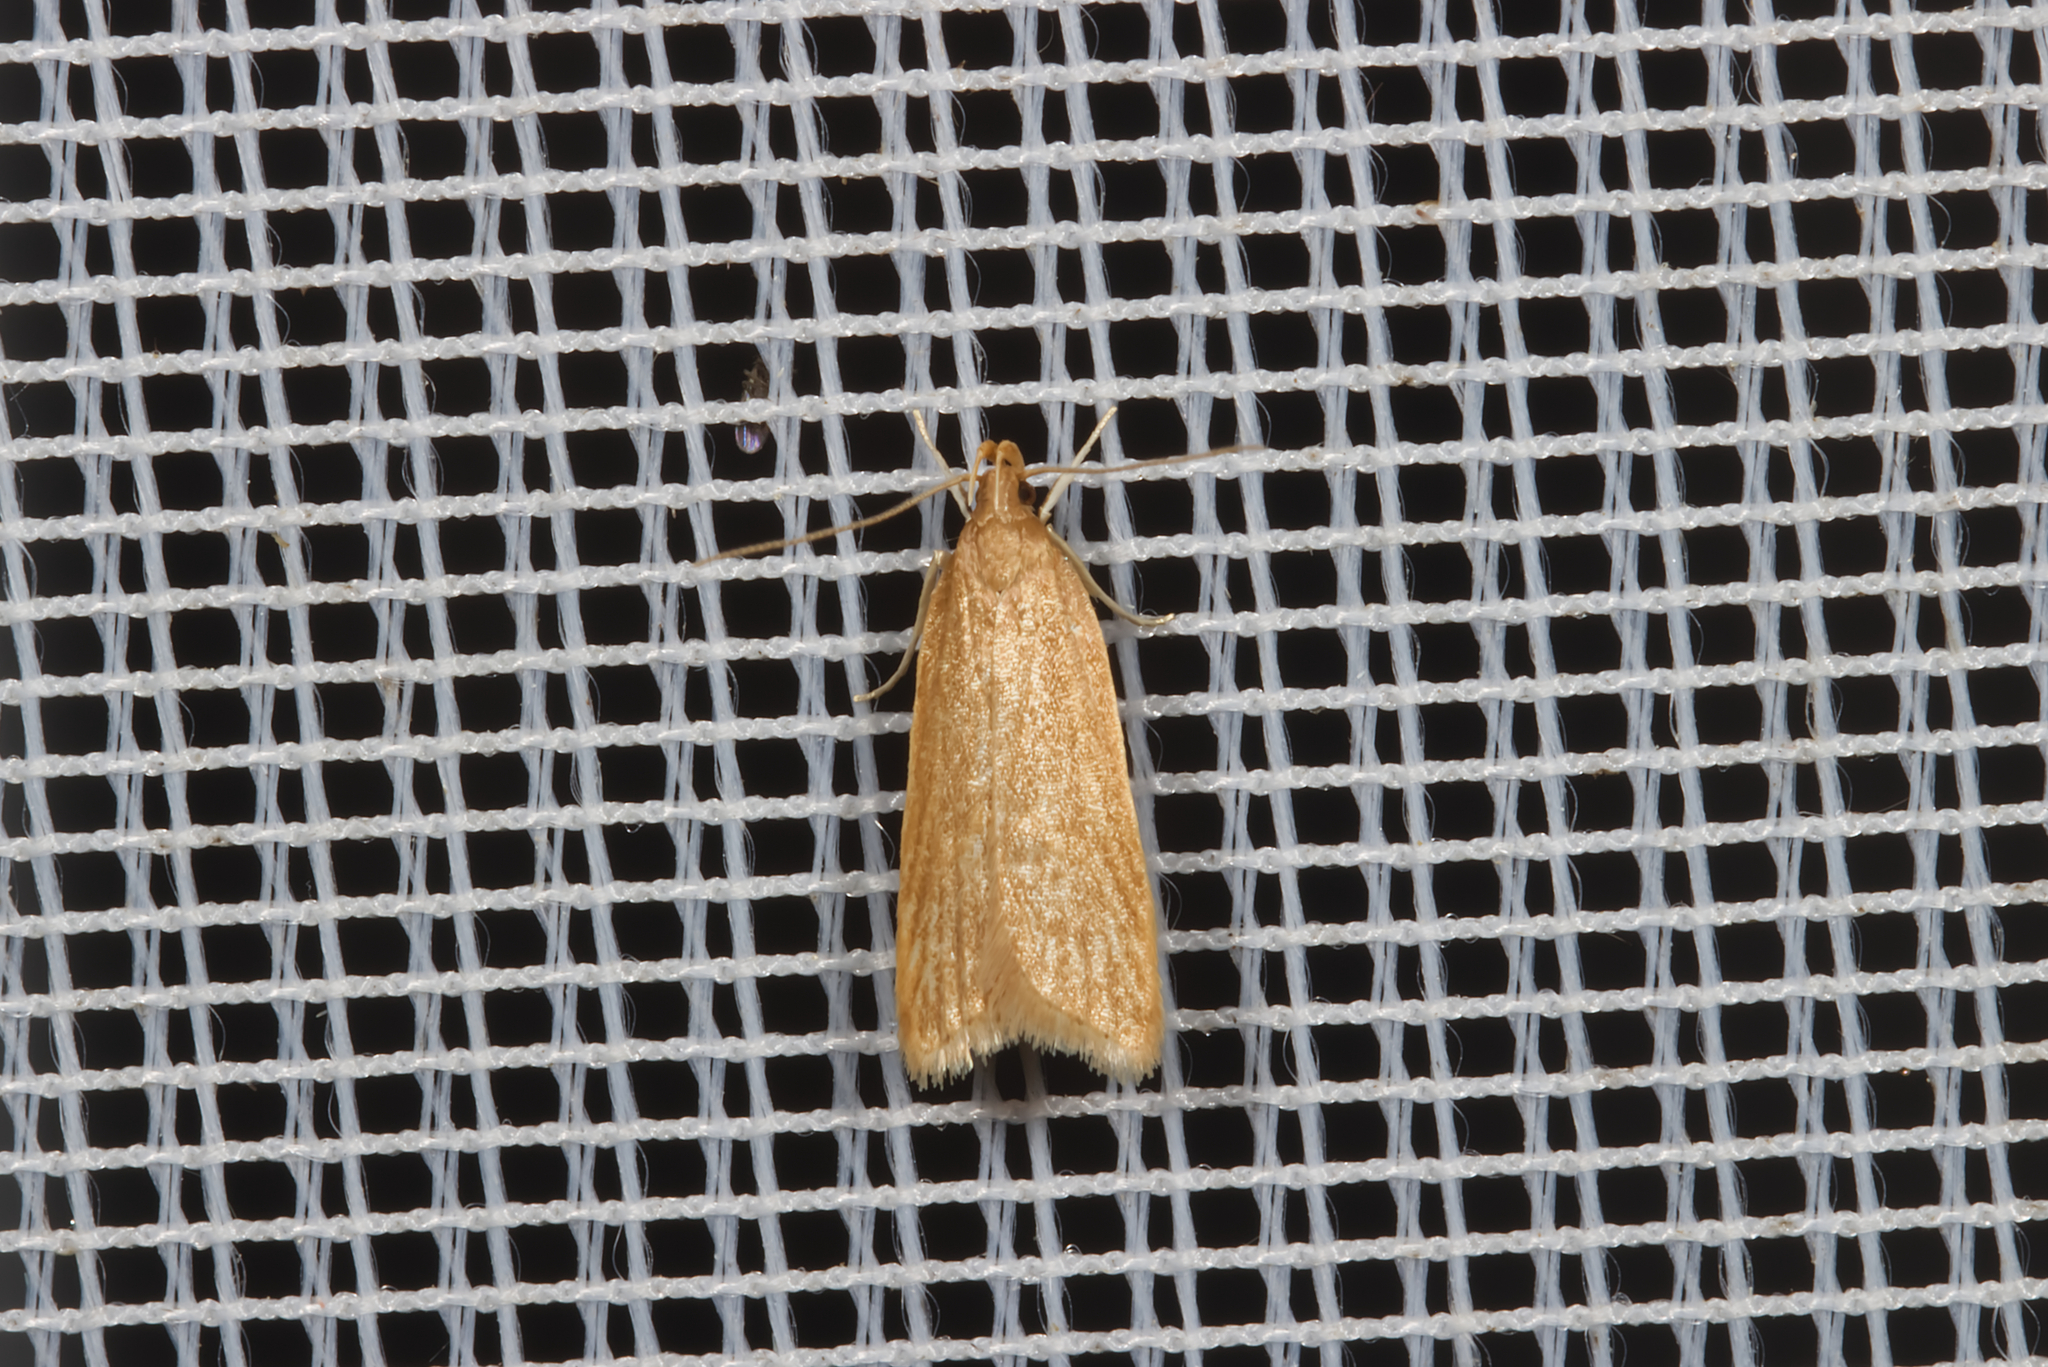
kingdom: Animalia
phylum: Arthropoda
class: Insecta
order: Lepidoptera
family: Gelechiidae
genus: Helcystogramma
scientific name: Helcystogramma rufescens
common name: Orange crest
